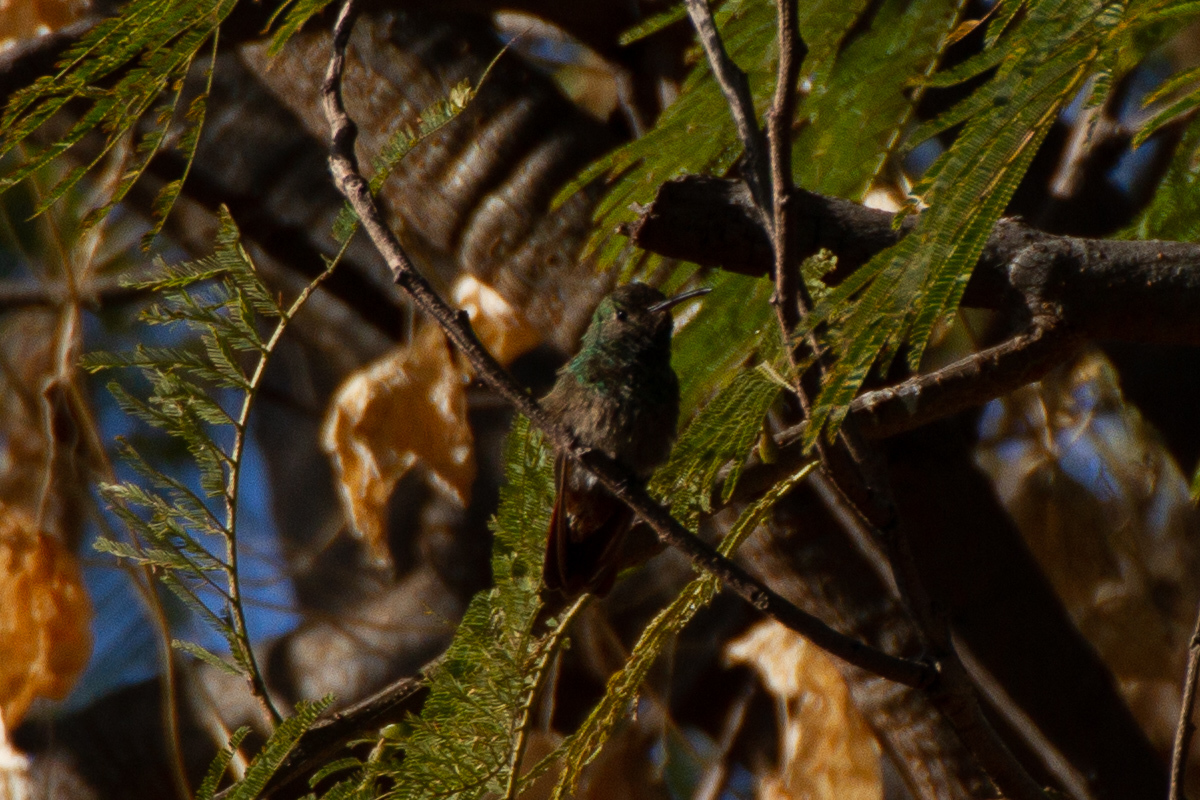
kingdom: Animalia
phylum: Chordata
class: Aves
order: Apodiformes
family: Trochilidae
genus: Saucerottia
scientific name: Saucerottia beryllina
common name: Berylline hummingbird
